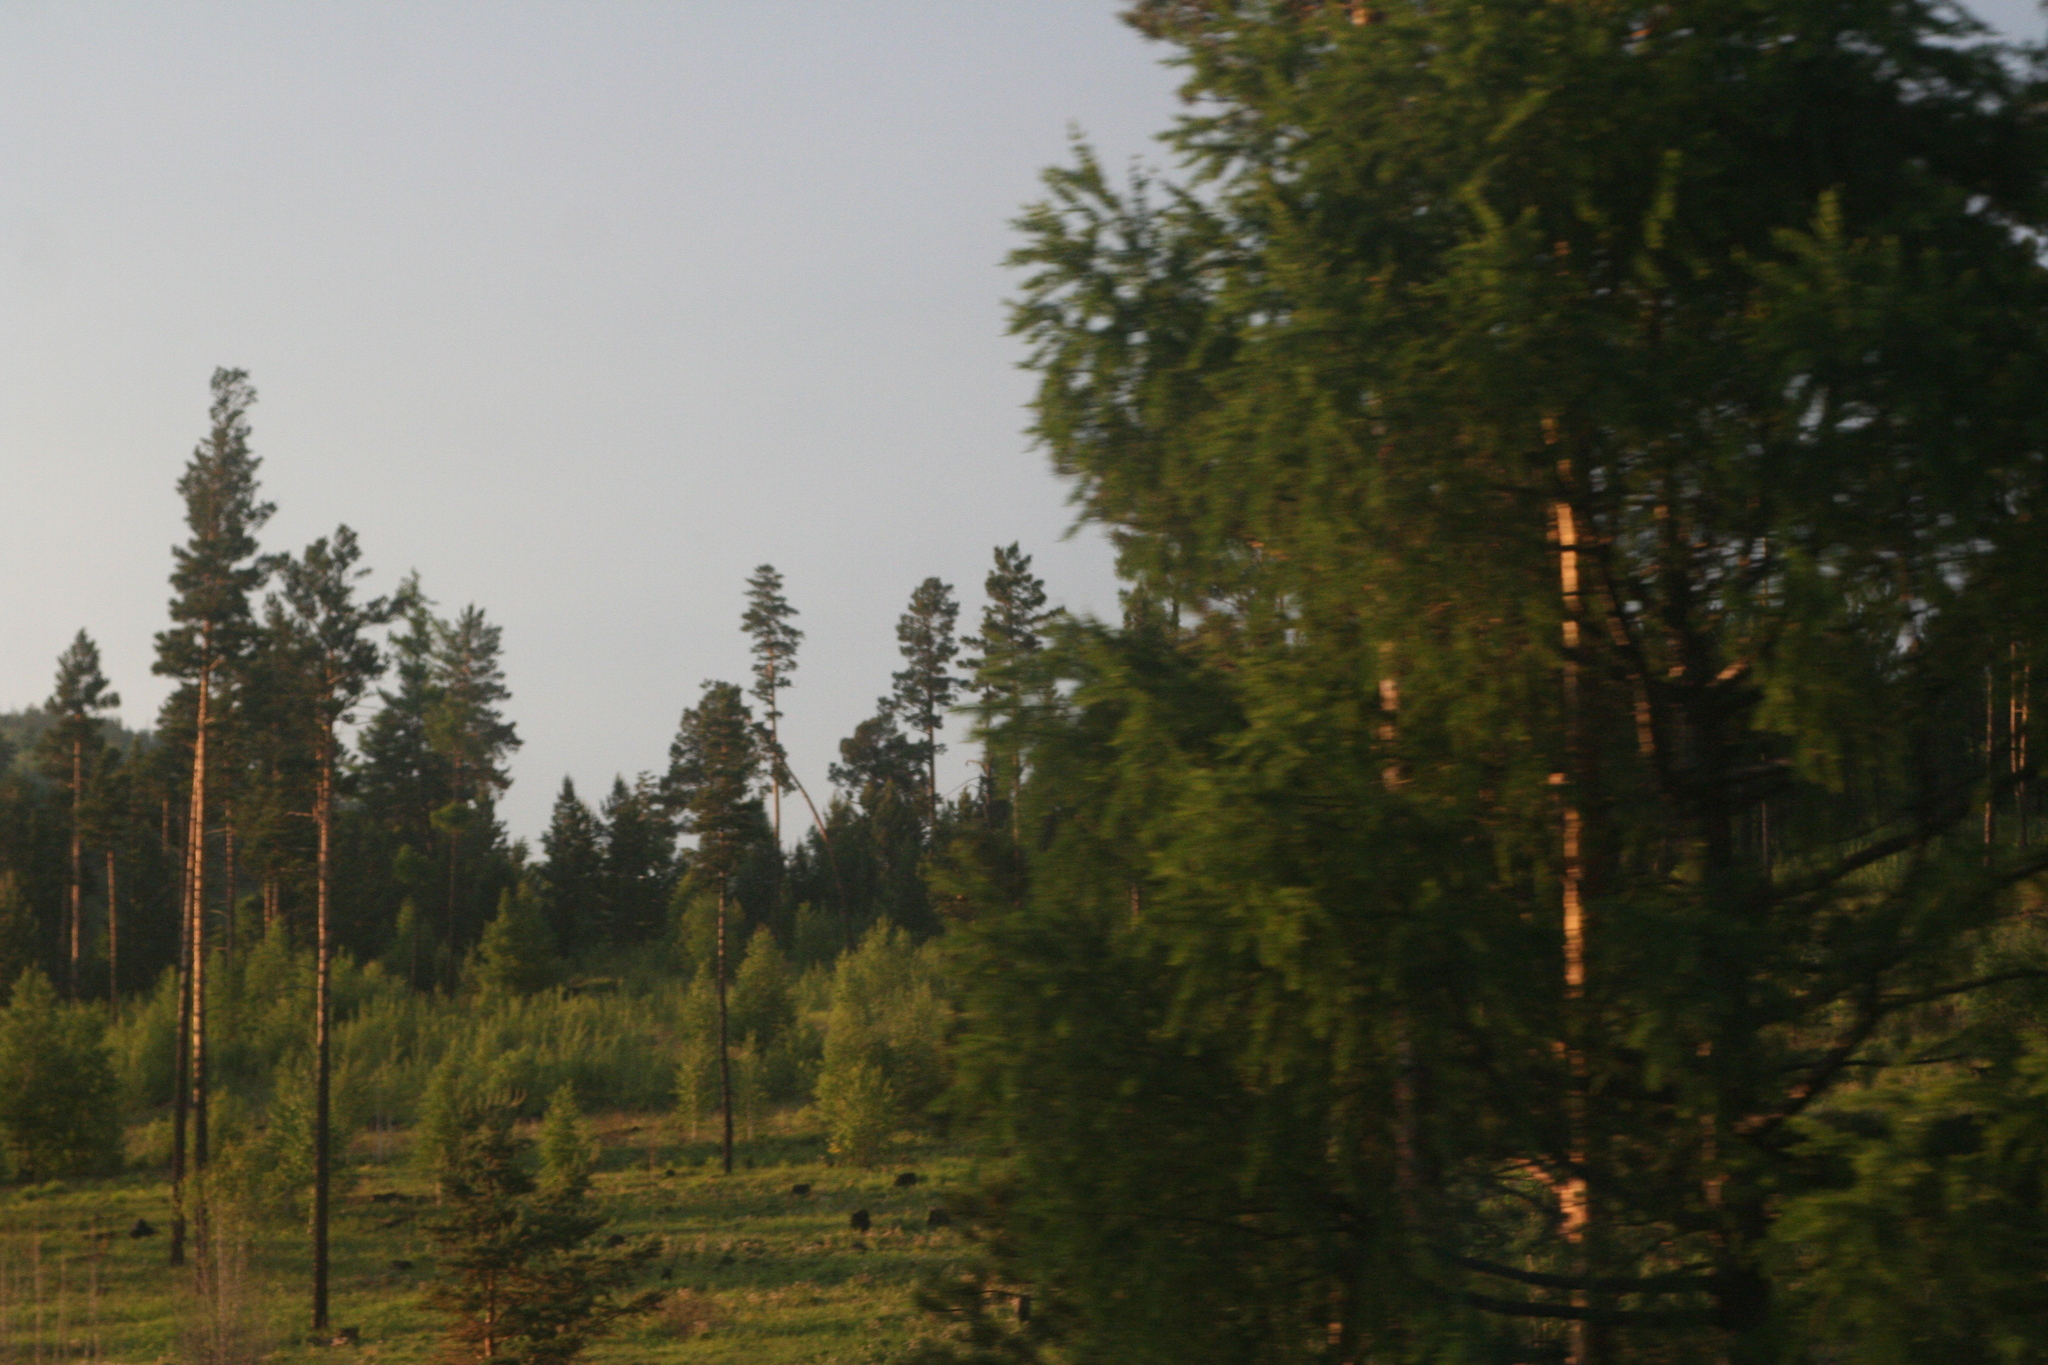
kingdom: Plantae
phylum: Tracheophyta
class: Pinopsida
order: Pinales
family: Pinaceae
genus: Larix
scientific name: Larix sibirica
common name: Siberian larch
